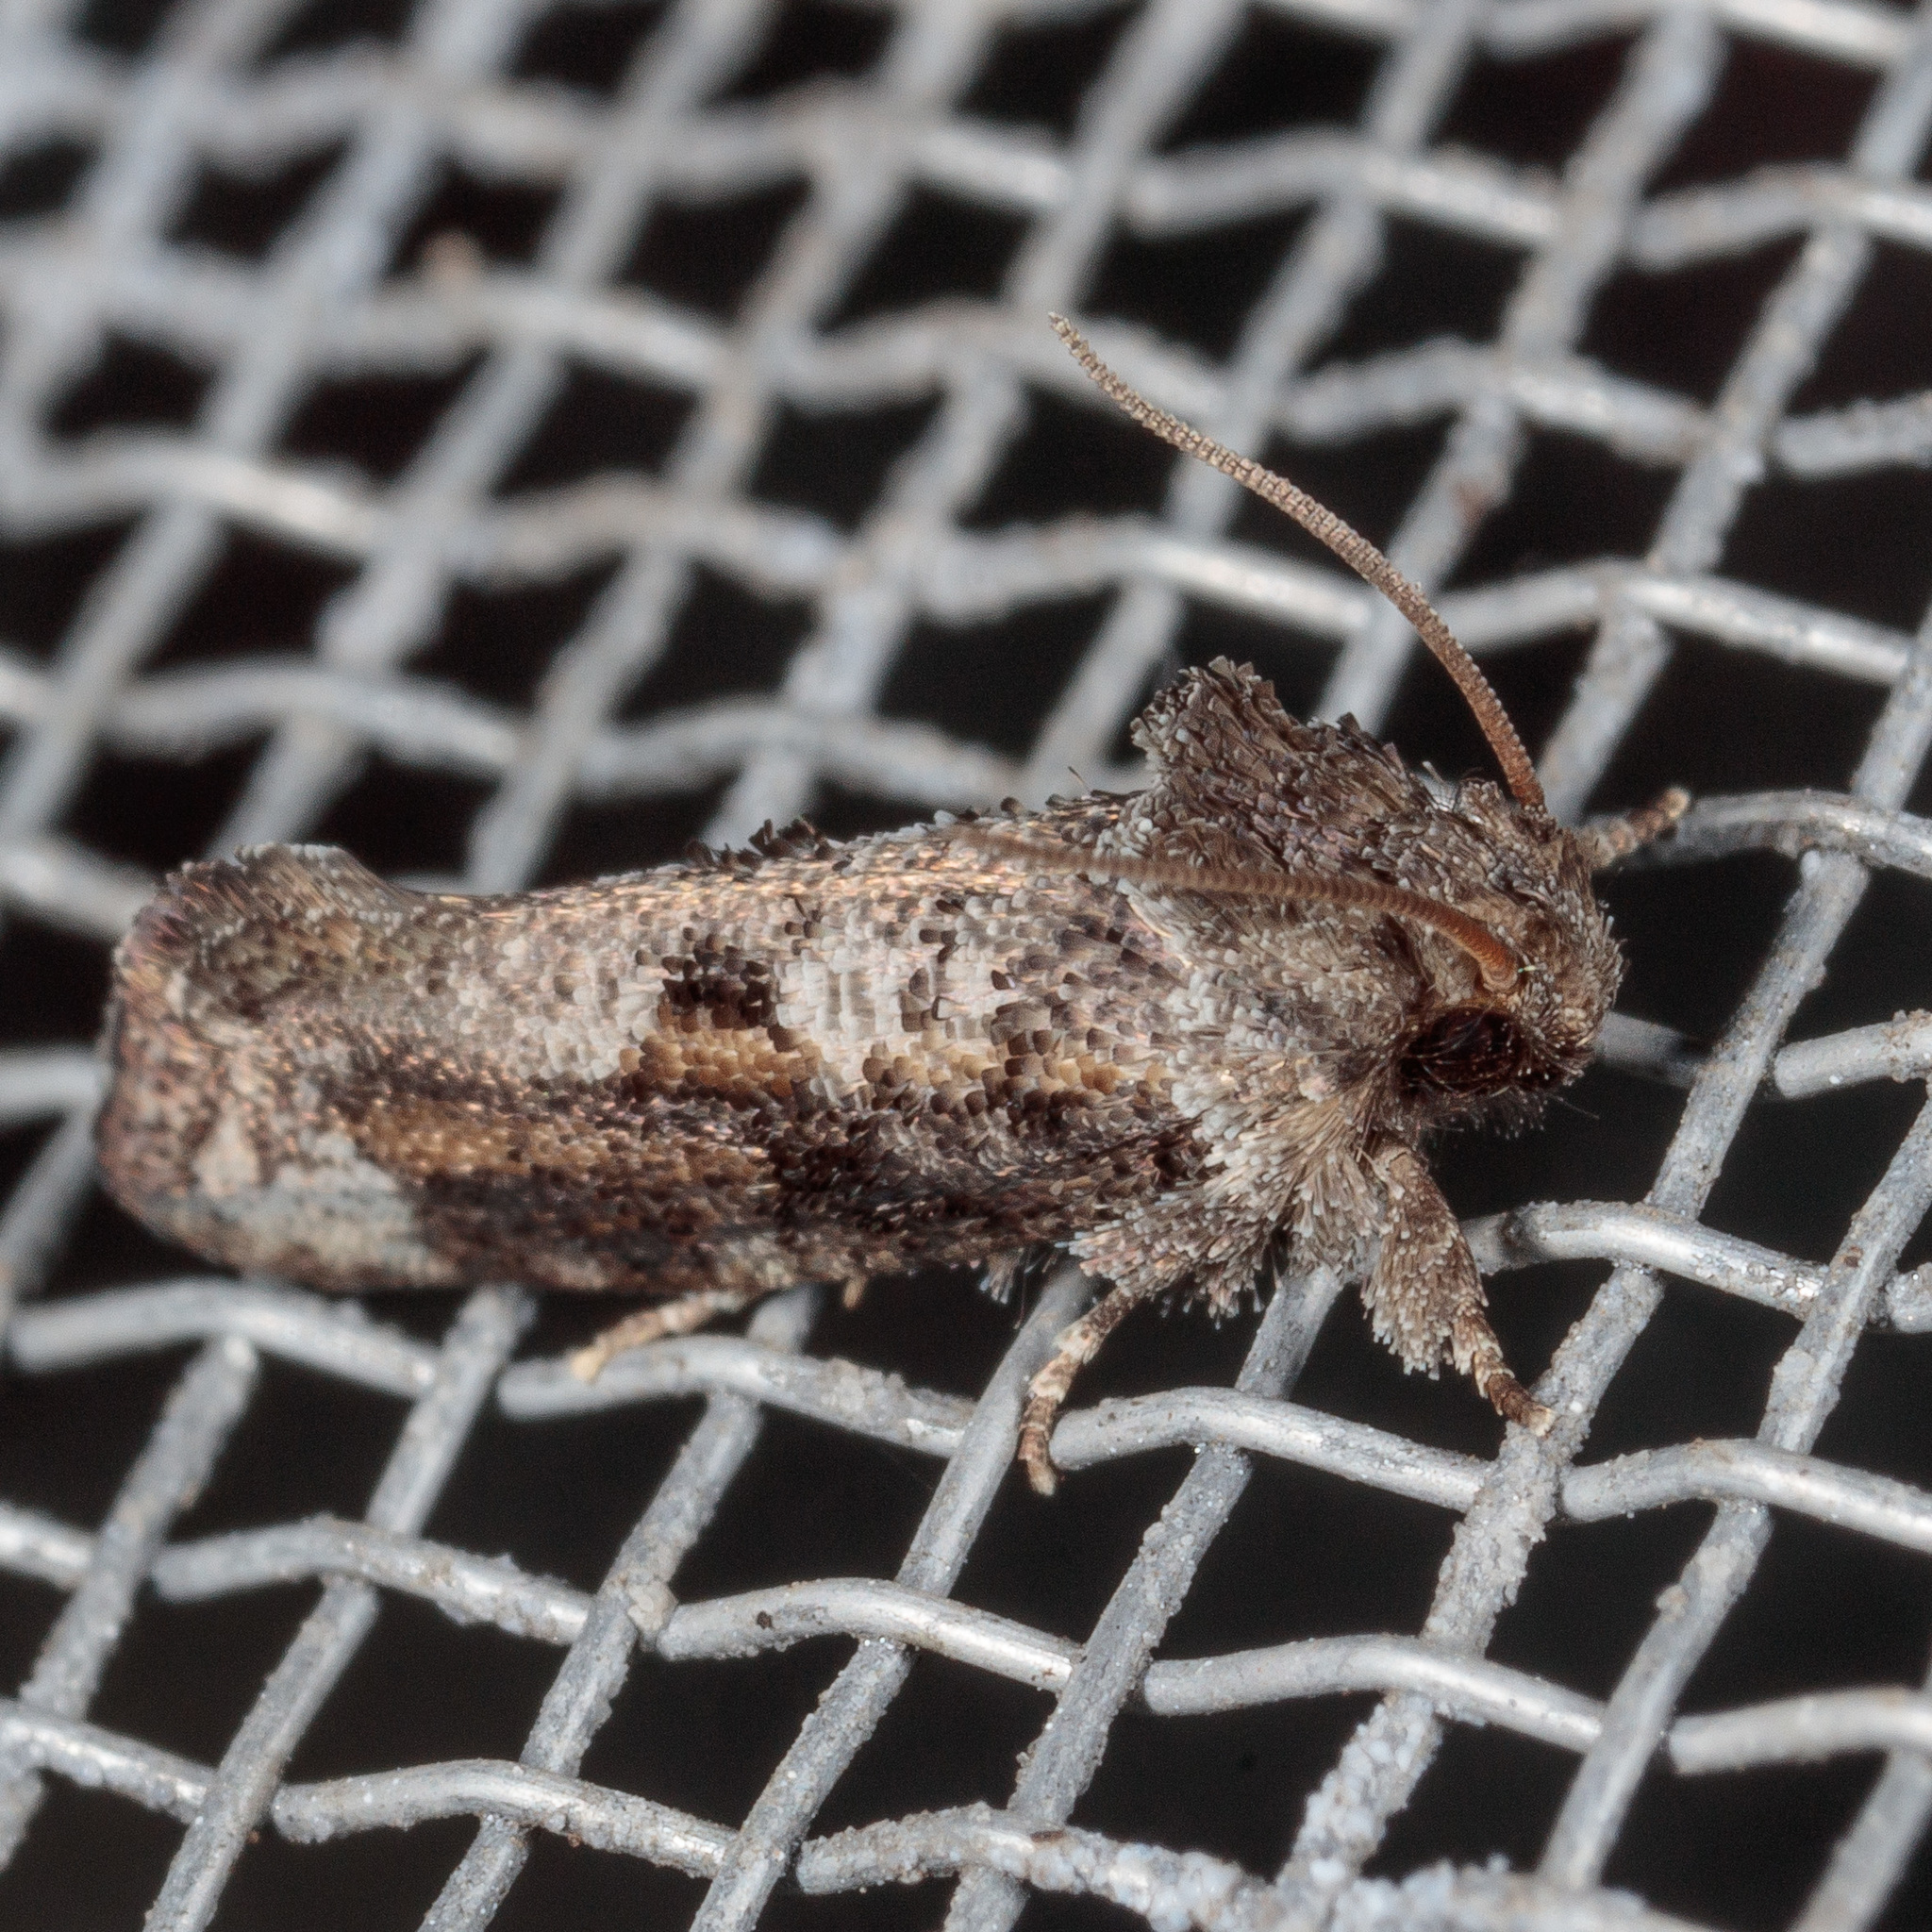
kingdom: Animalia
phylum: Arthropoda
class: Insecta
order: Lepidoptera
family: Tineidae
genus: Acrolophus
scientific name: Acrolophus piger
